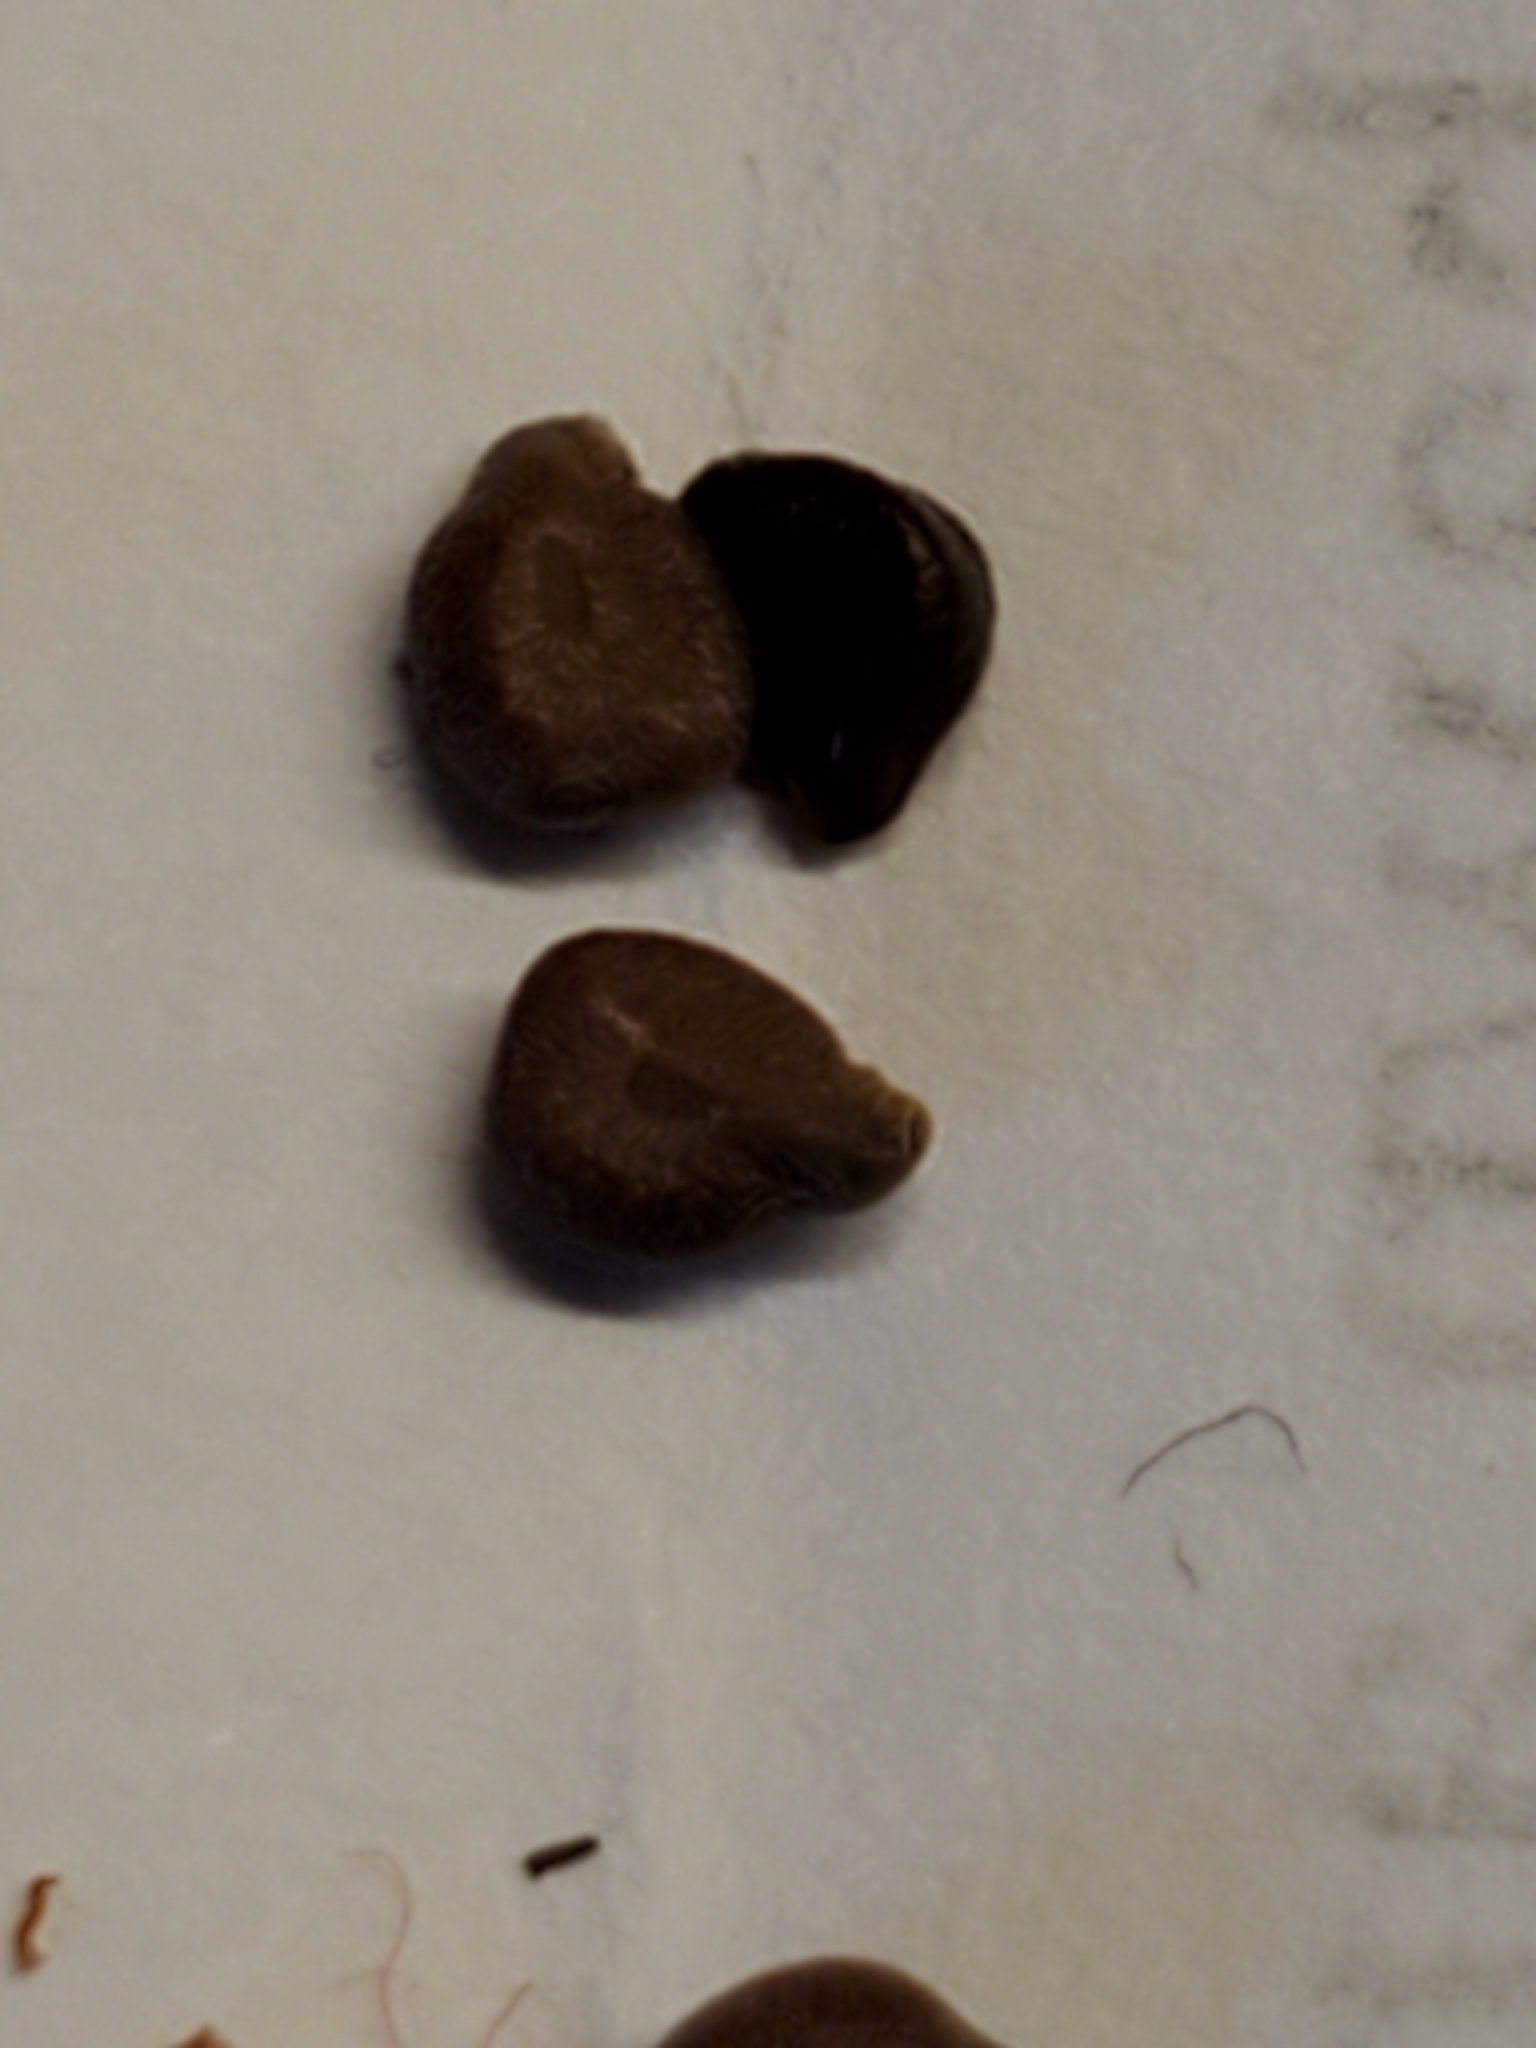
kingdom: Plantae
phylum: Tracheophyta
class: Magnoliopsida
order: Fabales
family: Fabaceae
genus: Senna
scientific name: Senna roemeriana
